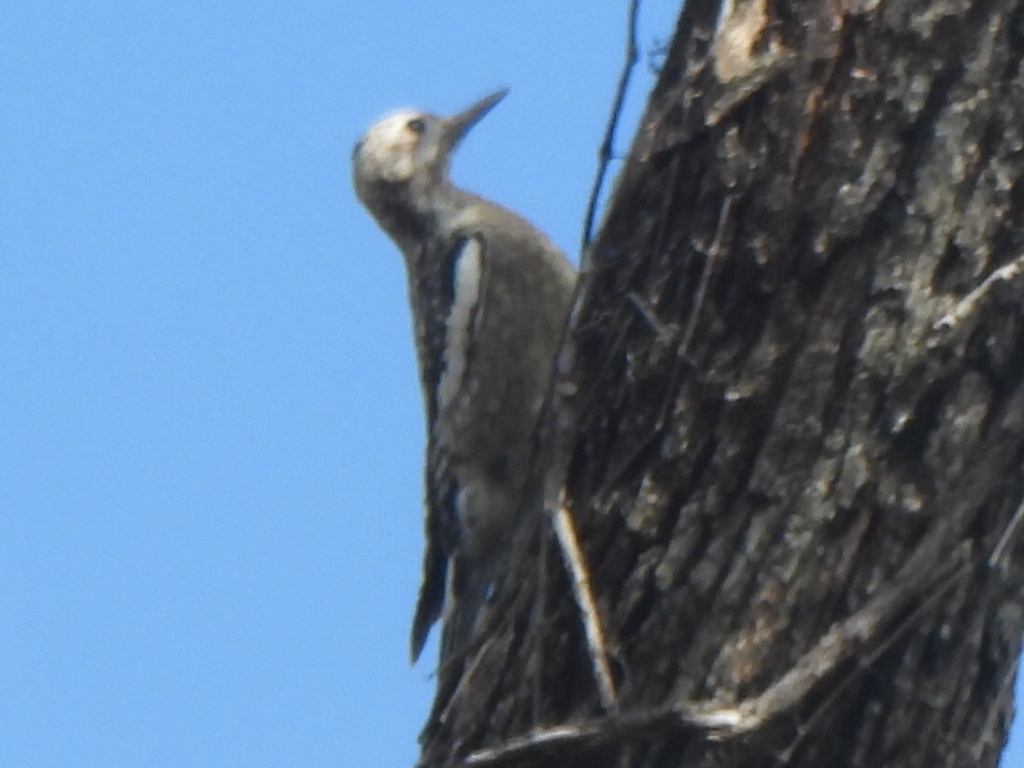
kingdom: Animalia
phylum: Chordata
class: Aves
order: Piciformes
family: Picidae
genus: Sphyrapicus
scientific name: Sphyrapicus varius
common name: Yellow-bellied sapsucker
